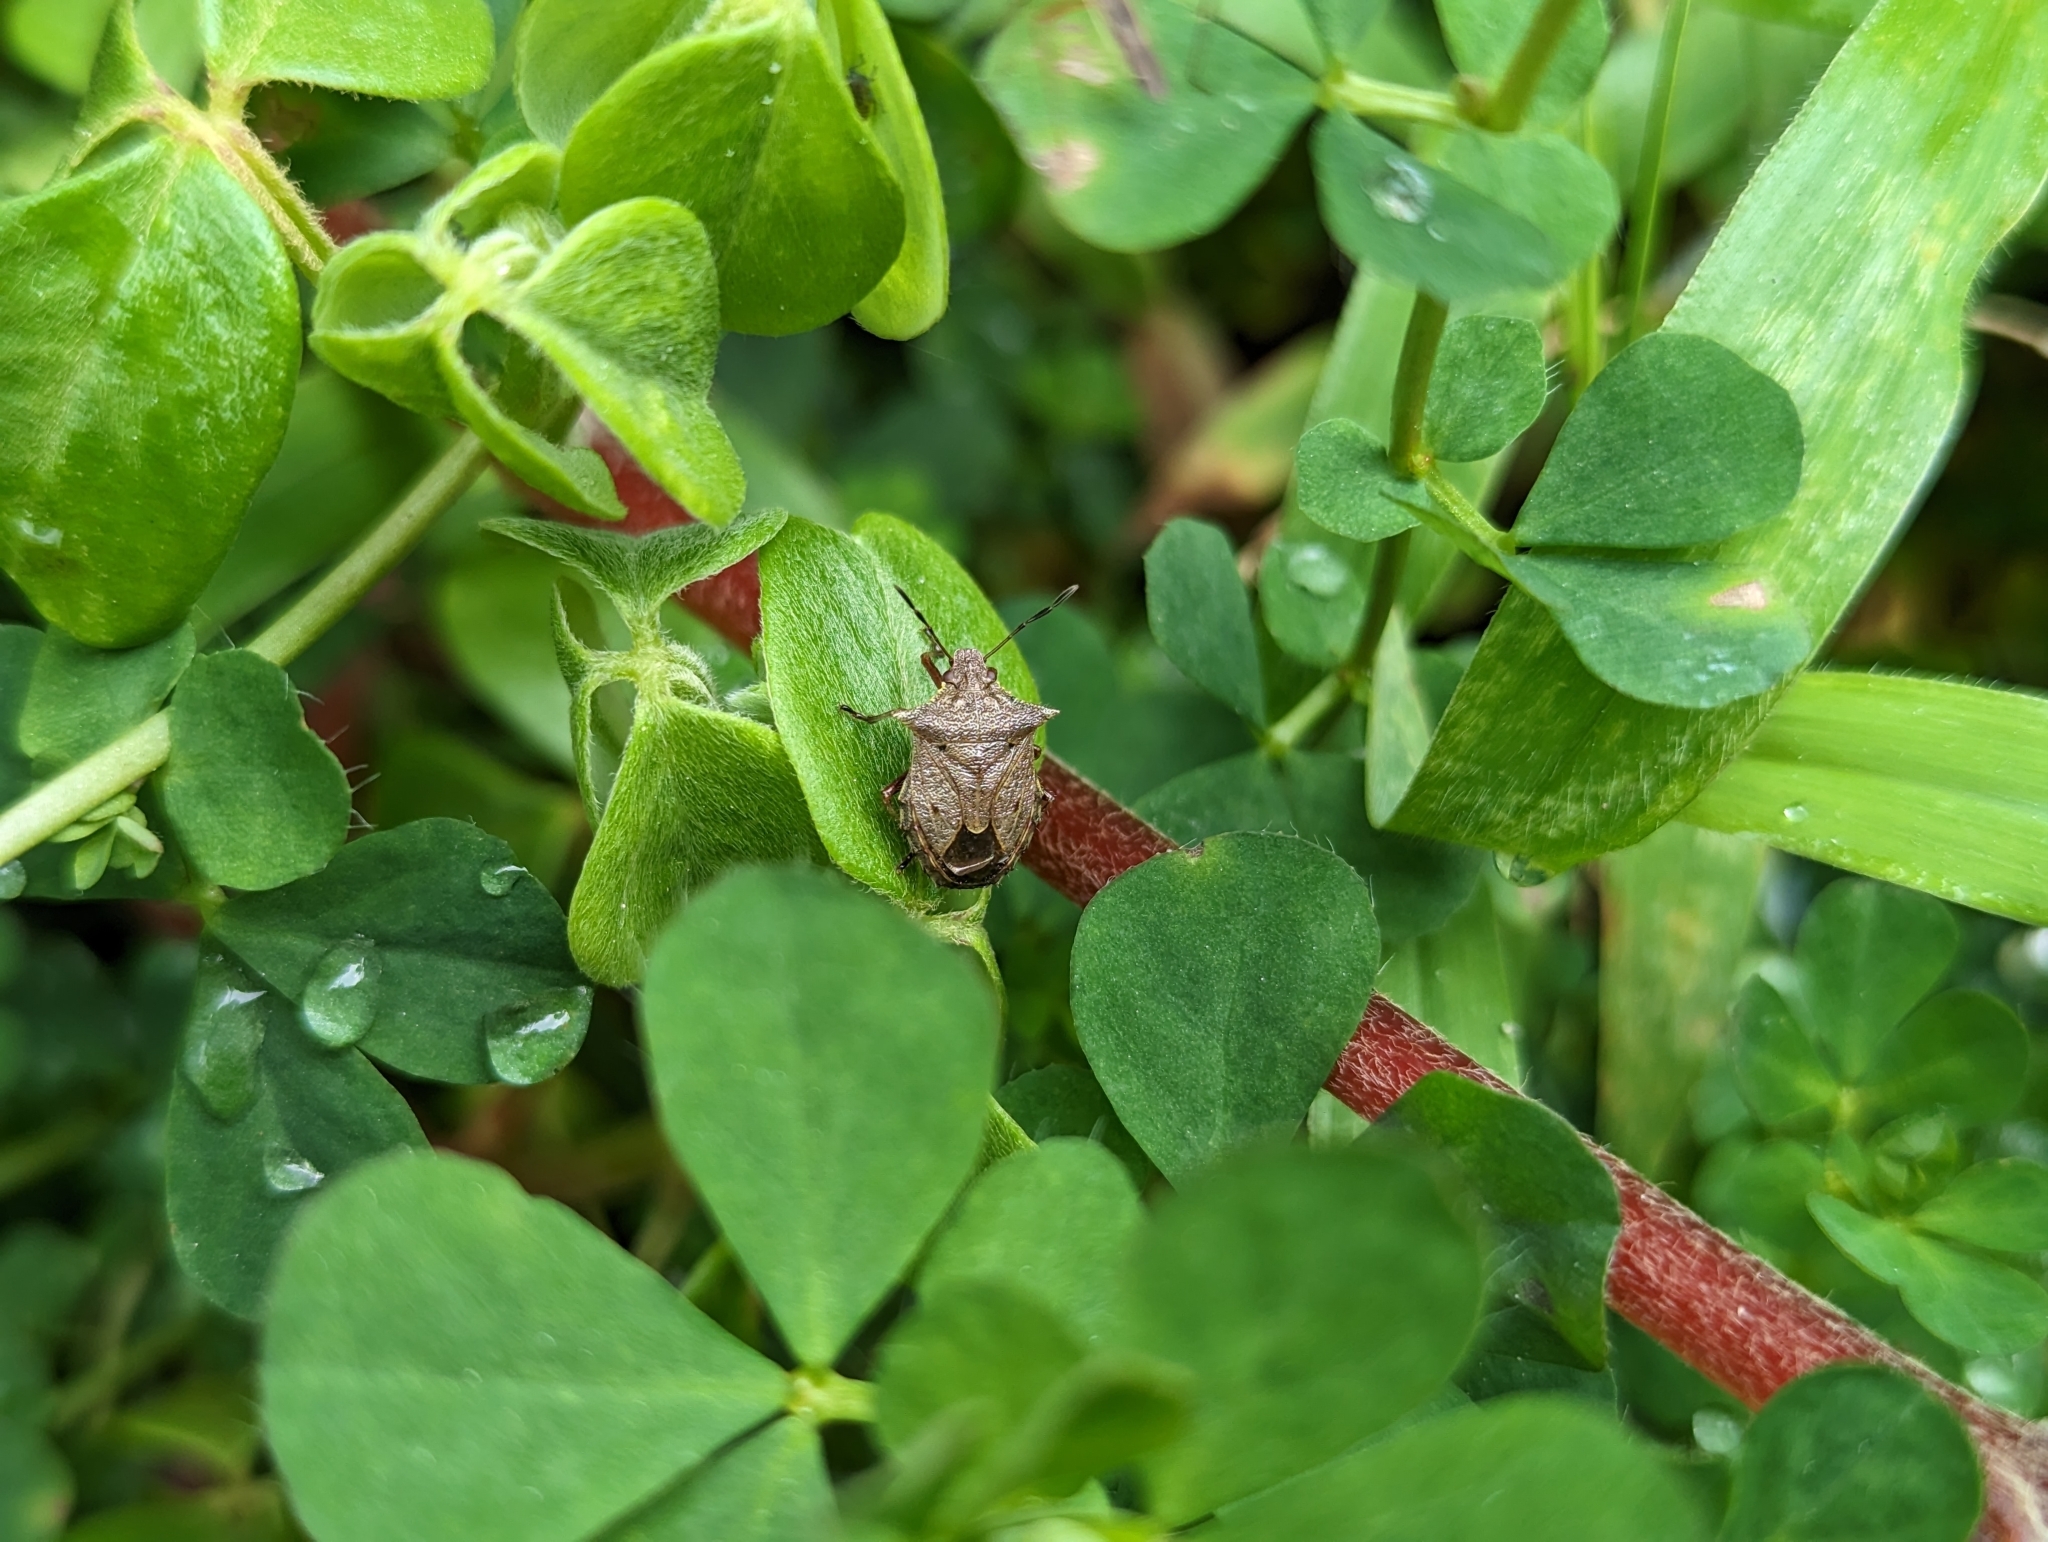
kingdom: Animalia
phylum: Arthropoda
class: Insecta
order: Hemiptera
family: Pentatomidae
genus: Podisus
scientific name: Podisus
